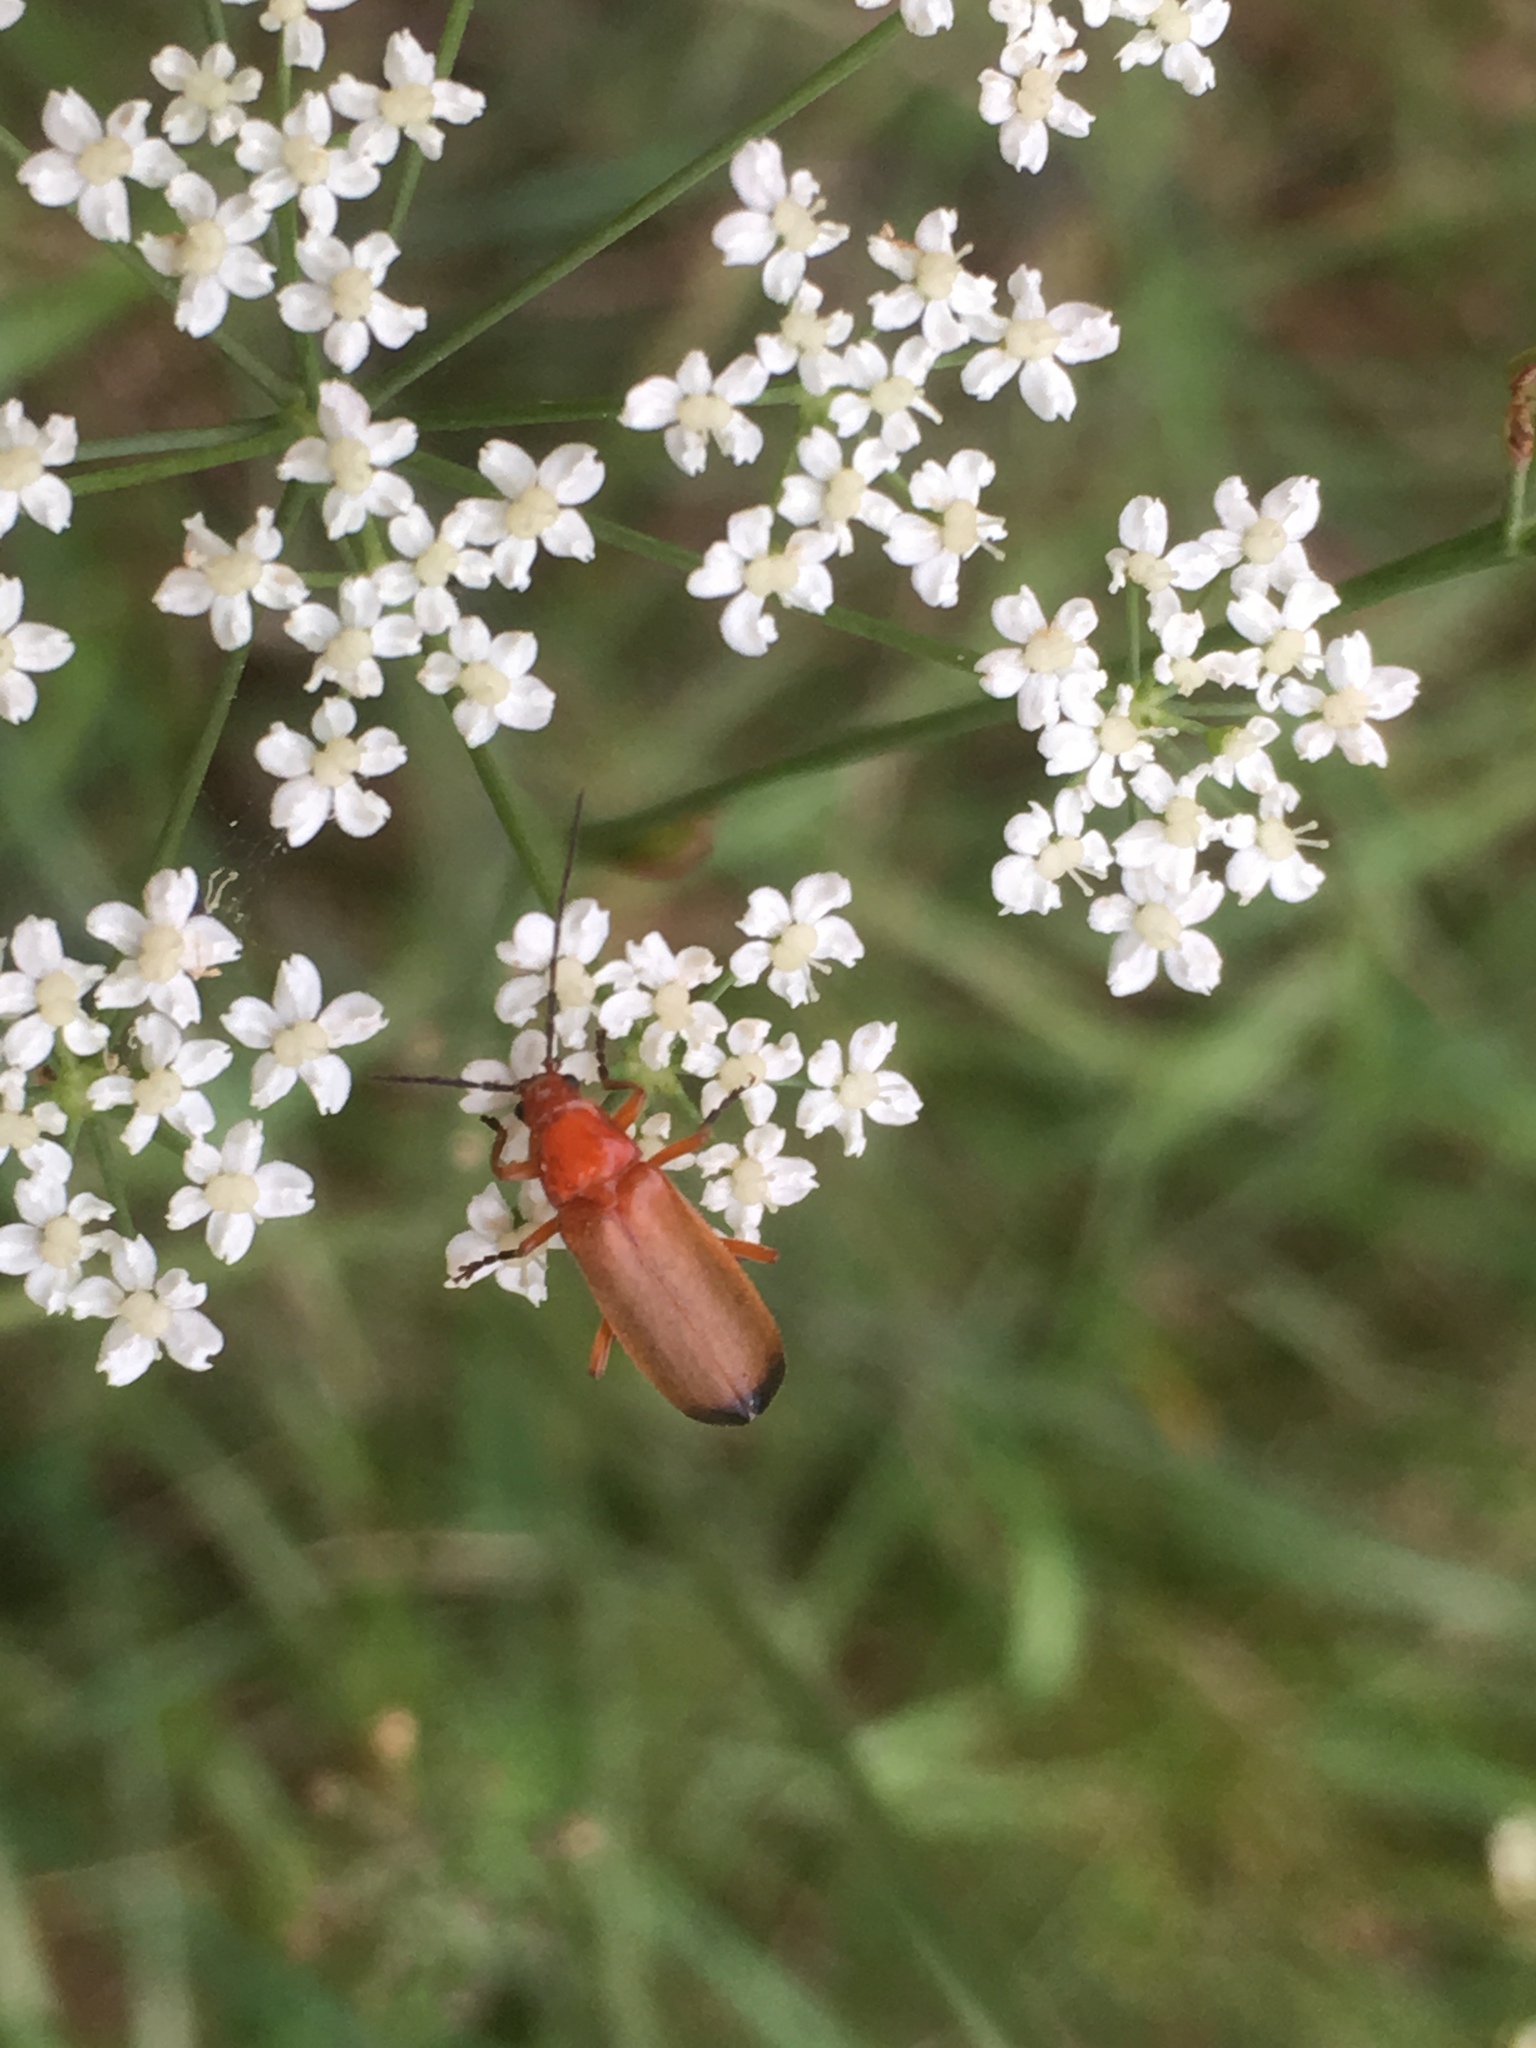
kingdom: Animalia
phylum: Arthropoda
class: Insecta
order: Coleoptera
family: Cantharidae
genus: Rhagonycha
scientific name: Rhagonycha fulva
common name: Common red soldier beetle
